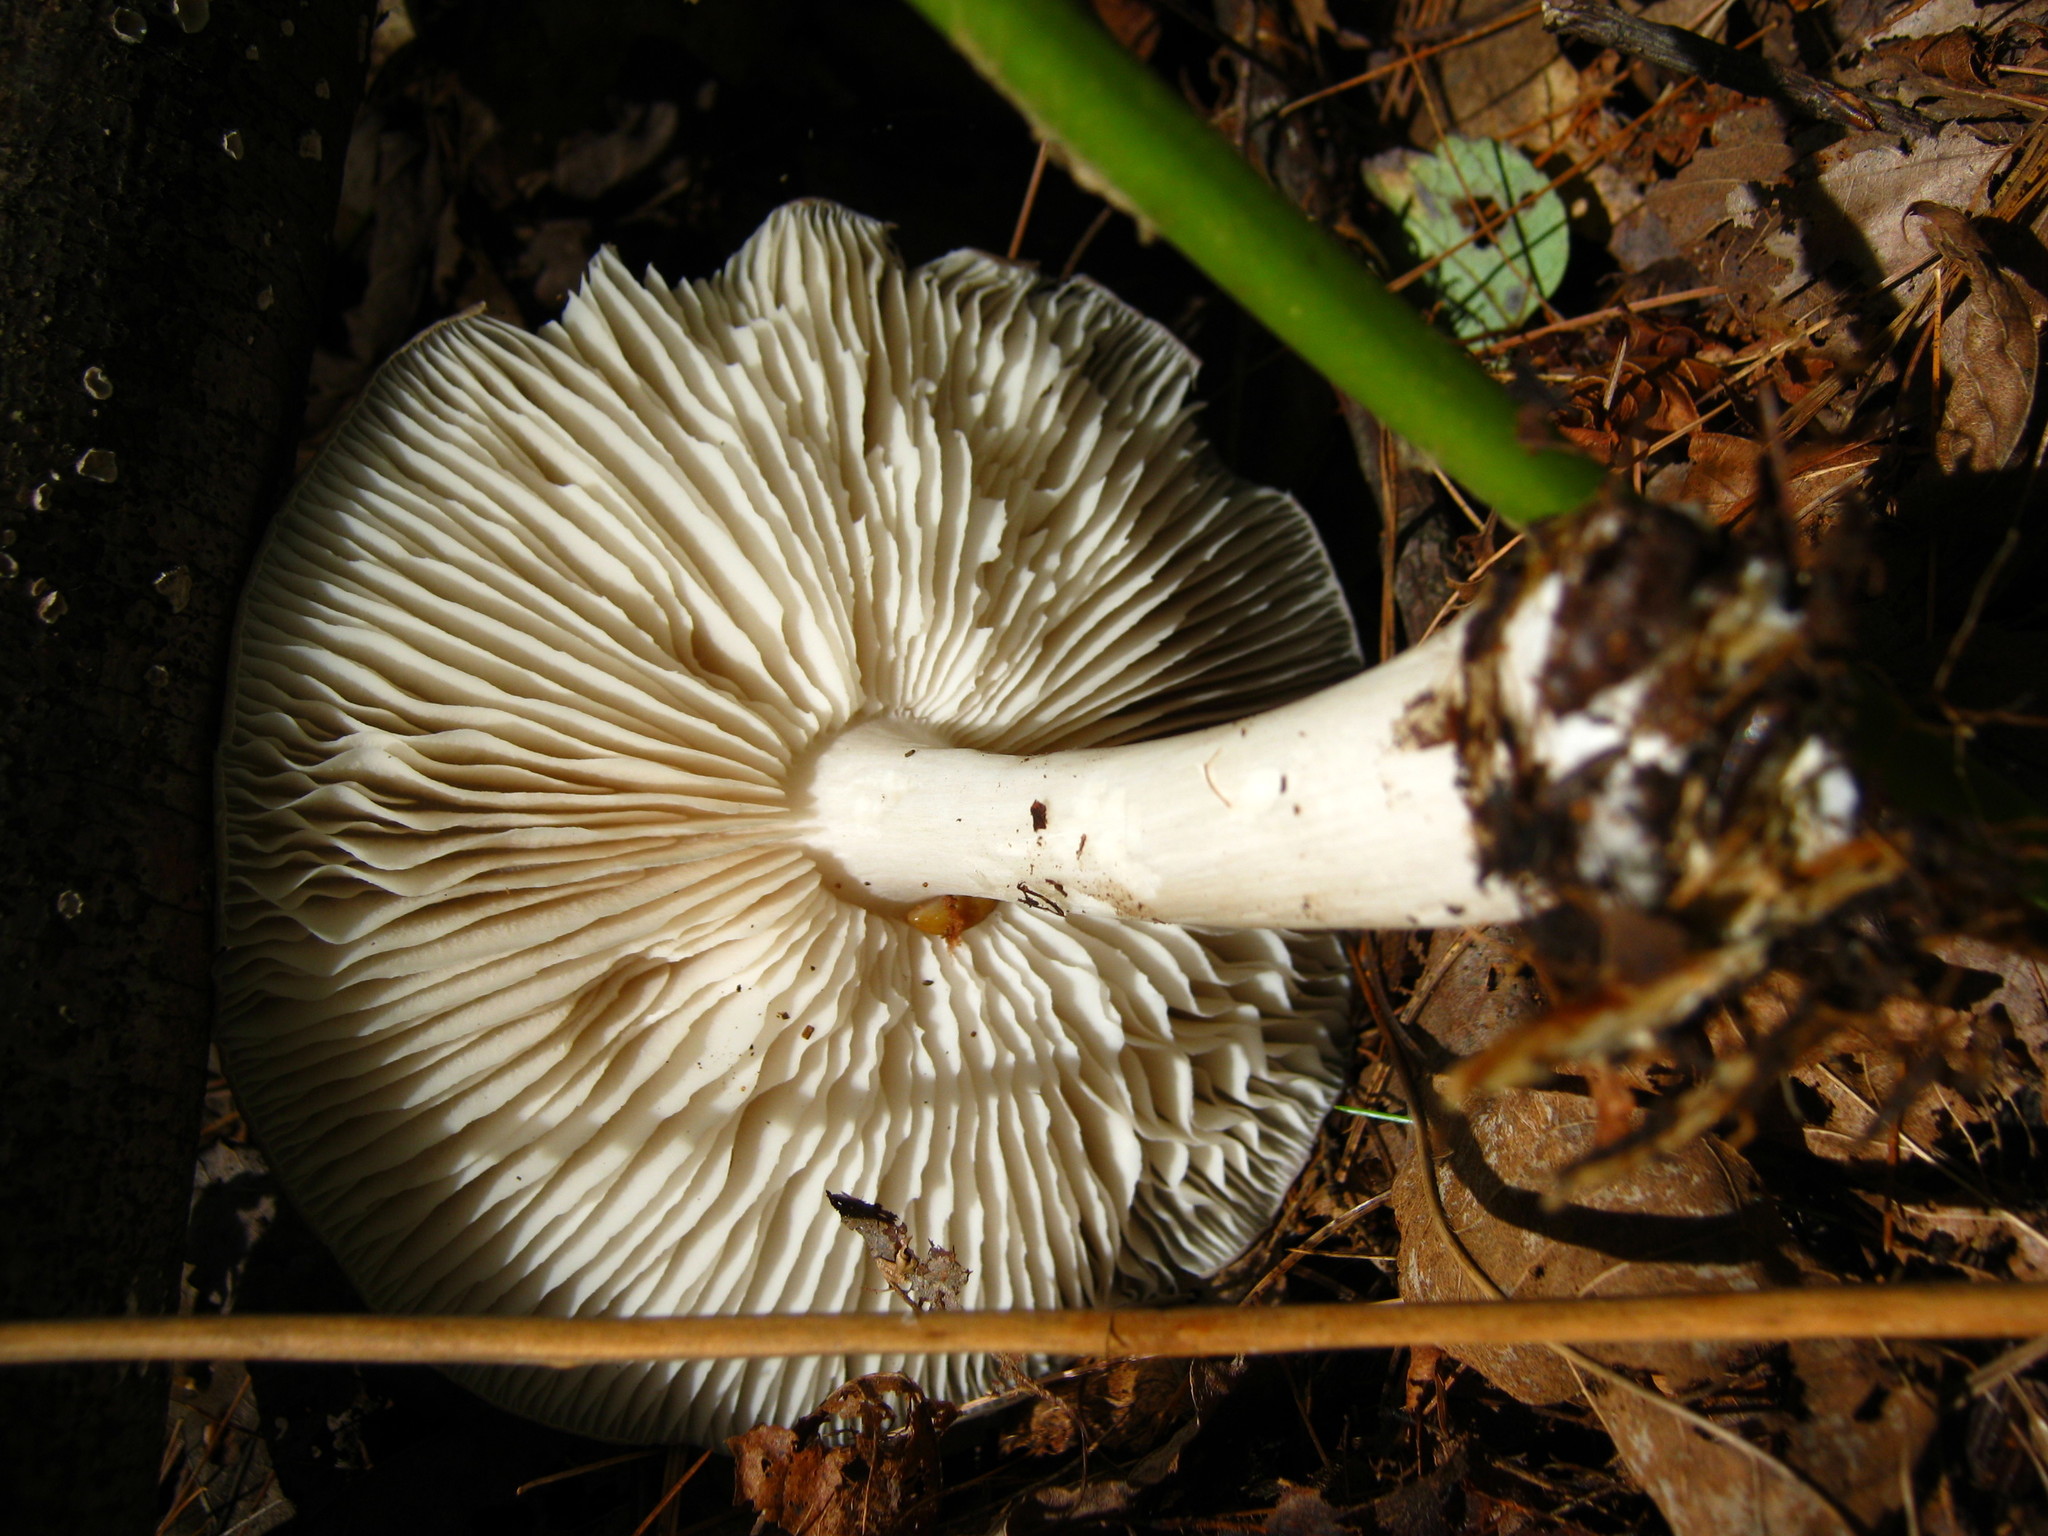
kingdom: Fungi
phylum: Basidiomycota
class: Agaricomycetes
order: Agaricales
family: Tricholomataceae
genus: Megacollybia
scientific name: Megacollybia rodmanii
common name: Eastern american platterful mushroom
